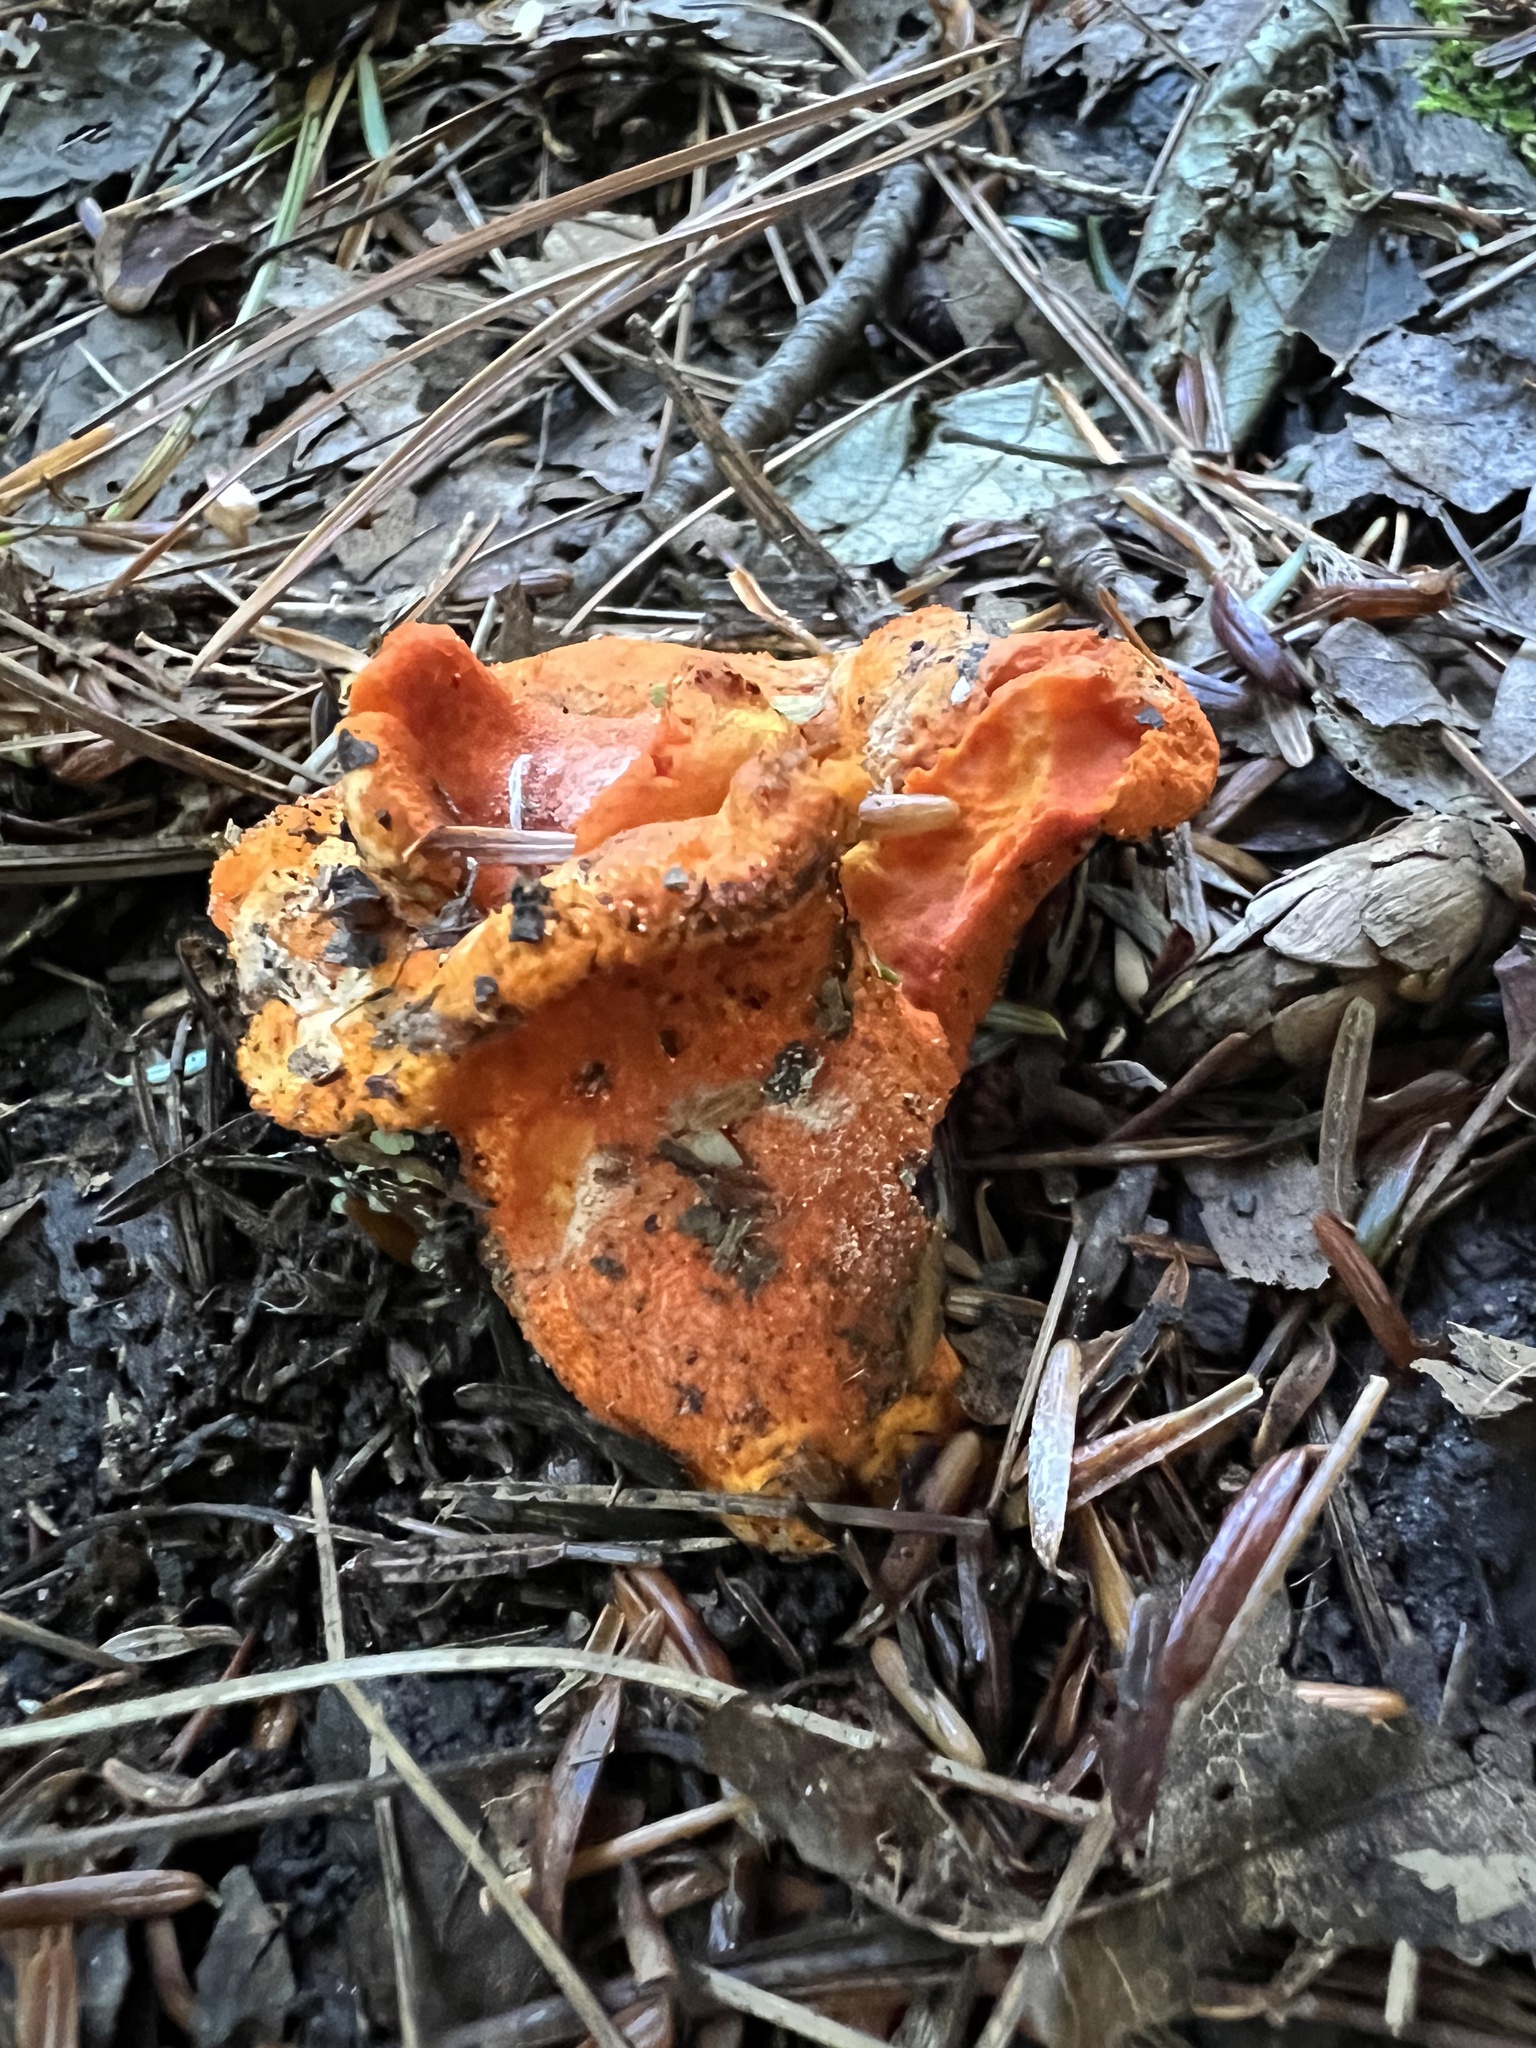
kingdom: Fungi
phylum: Ascomycota
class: Sordariomycetes
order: Hypocreales
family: Hypocreaceae
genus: Hypomyces
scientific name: Hypomyces lactifluorum
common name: Lobster mushroom
